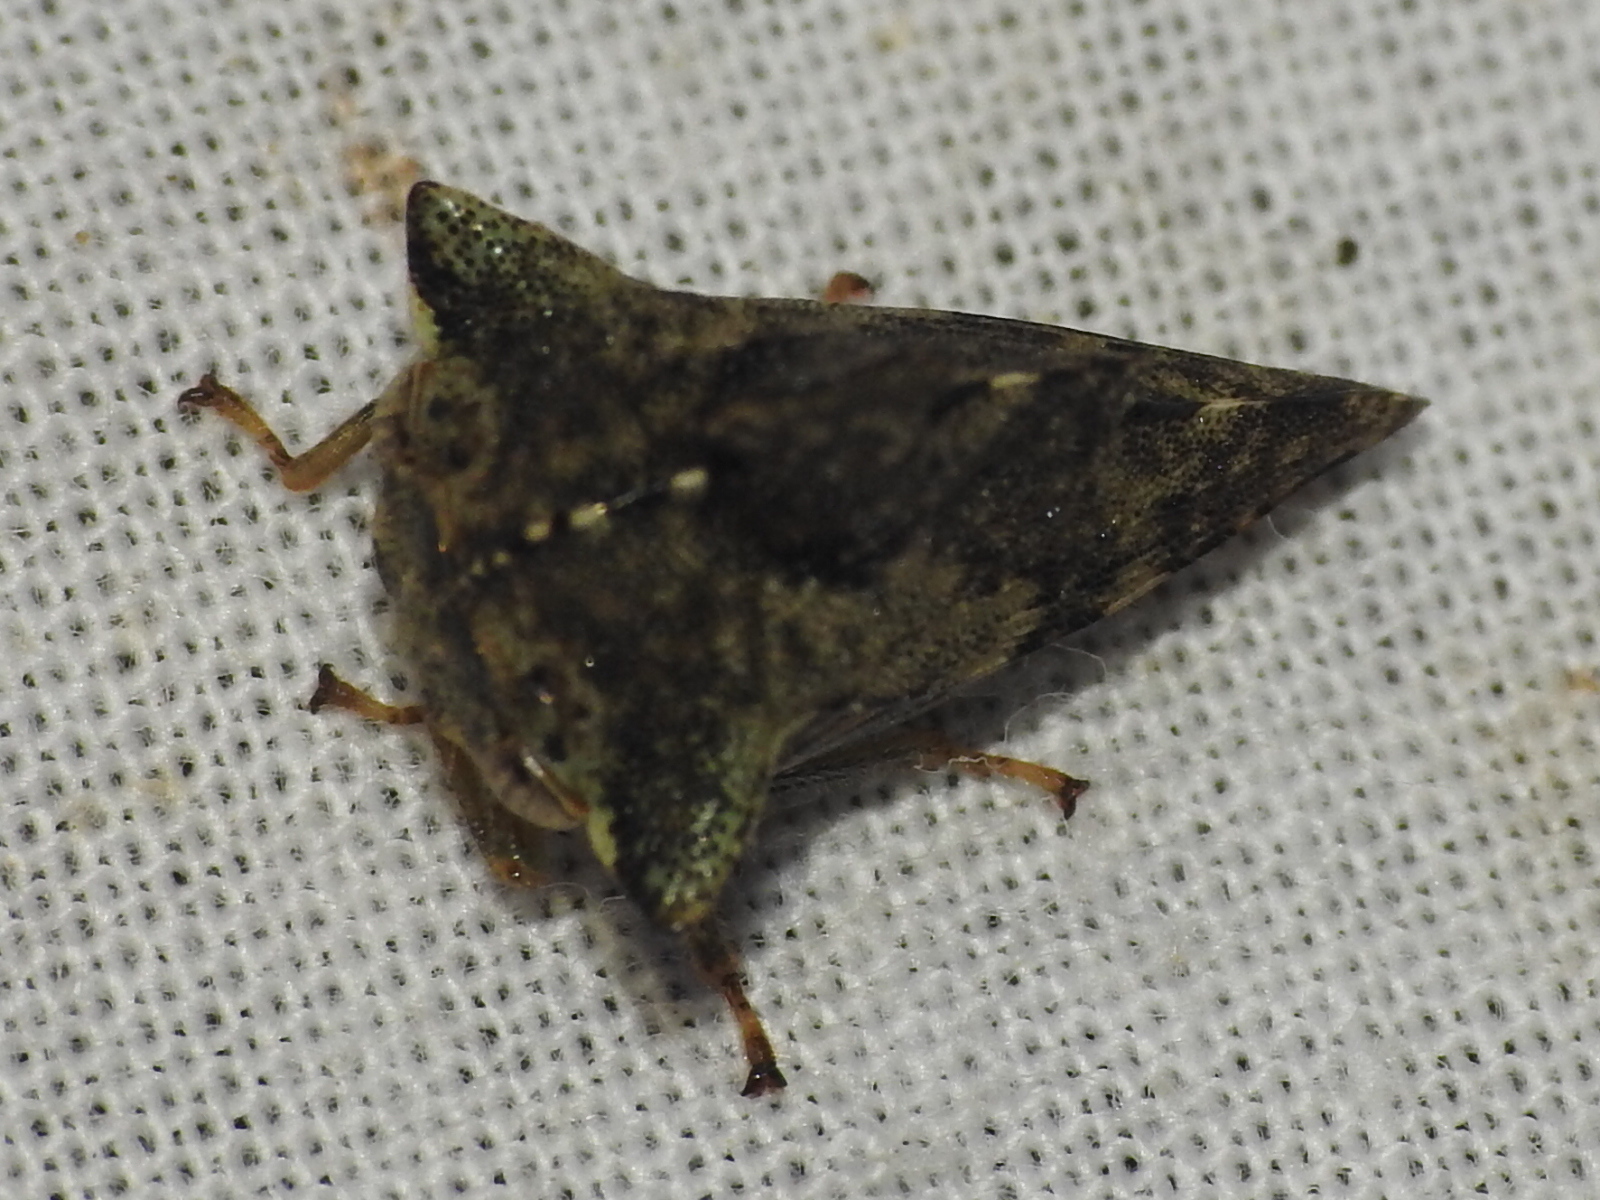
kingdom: Animalia
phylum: Arthropoda
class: Insecta
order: Hemiptera
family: Membracidae
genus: Heliria
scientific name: Heliria cristata
